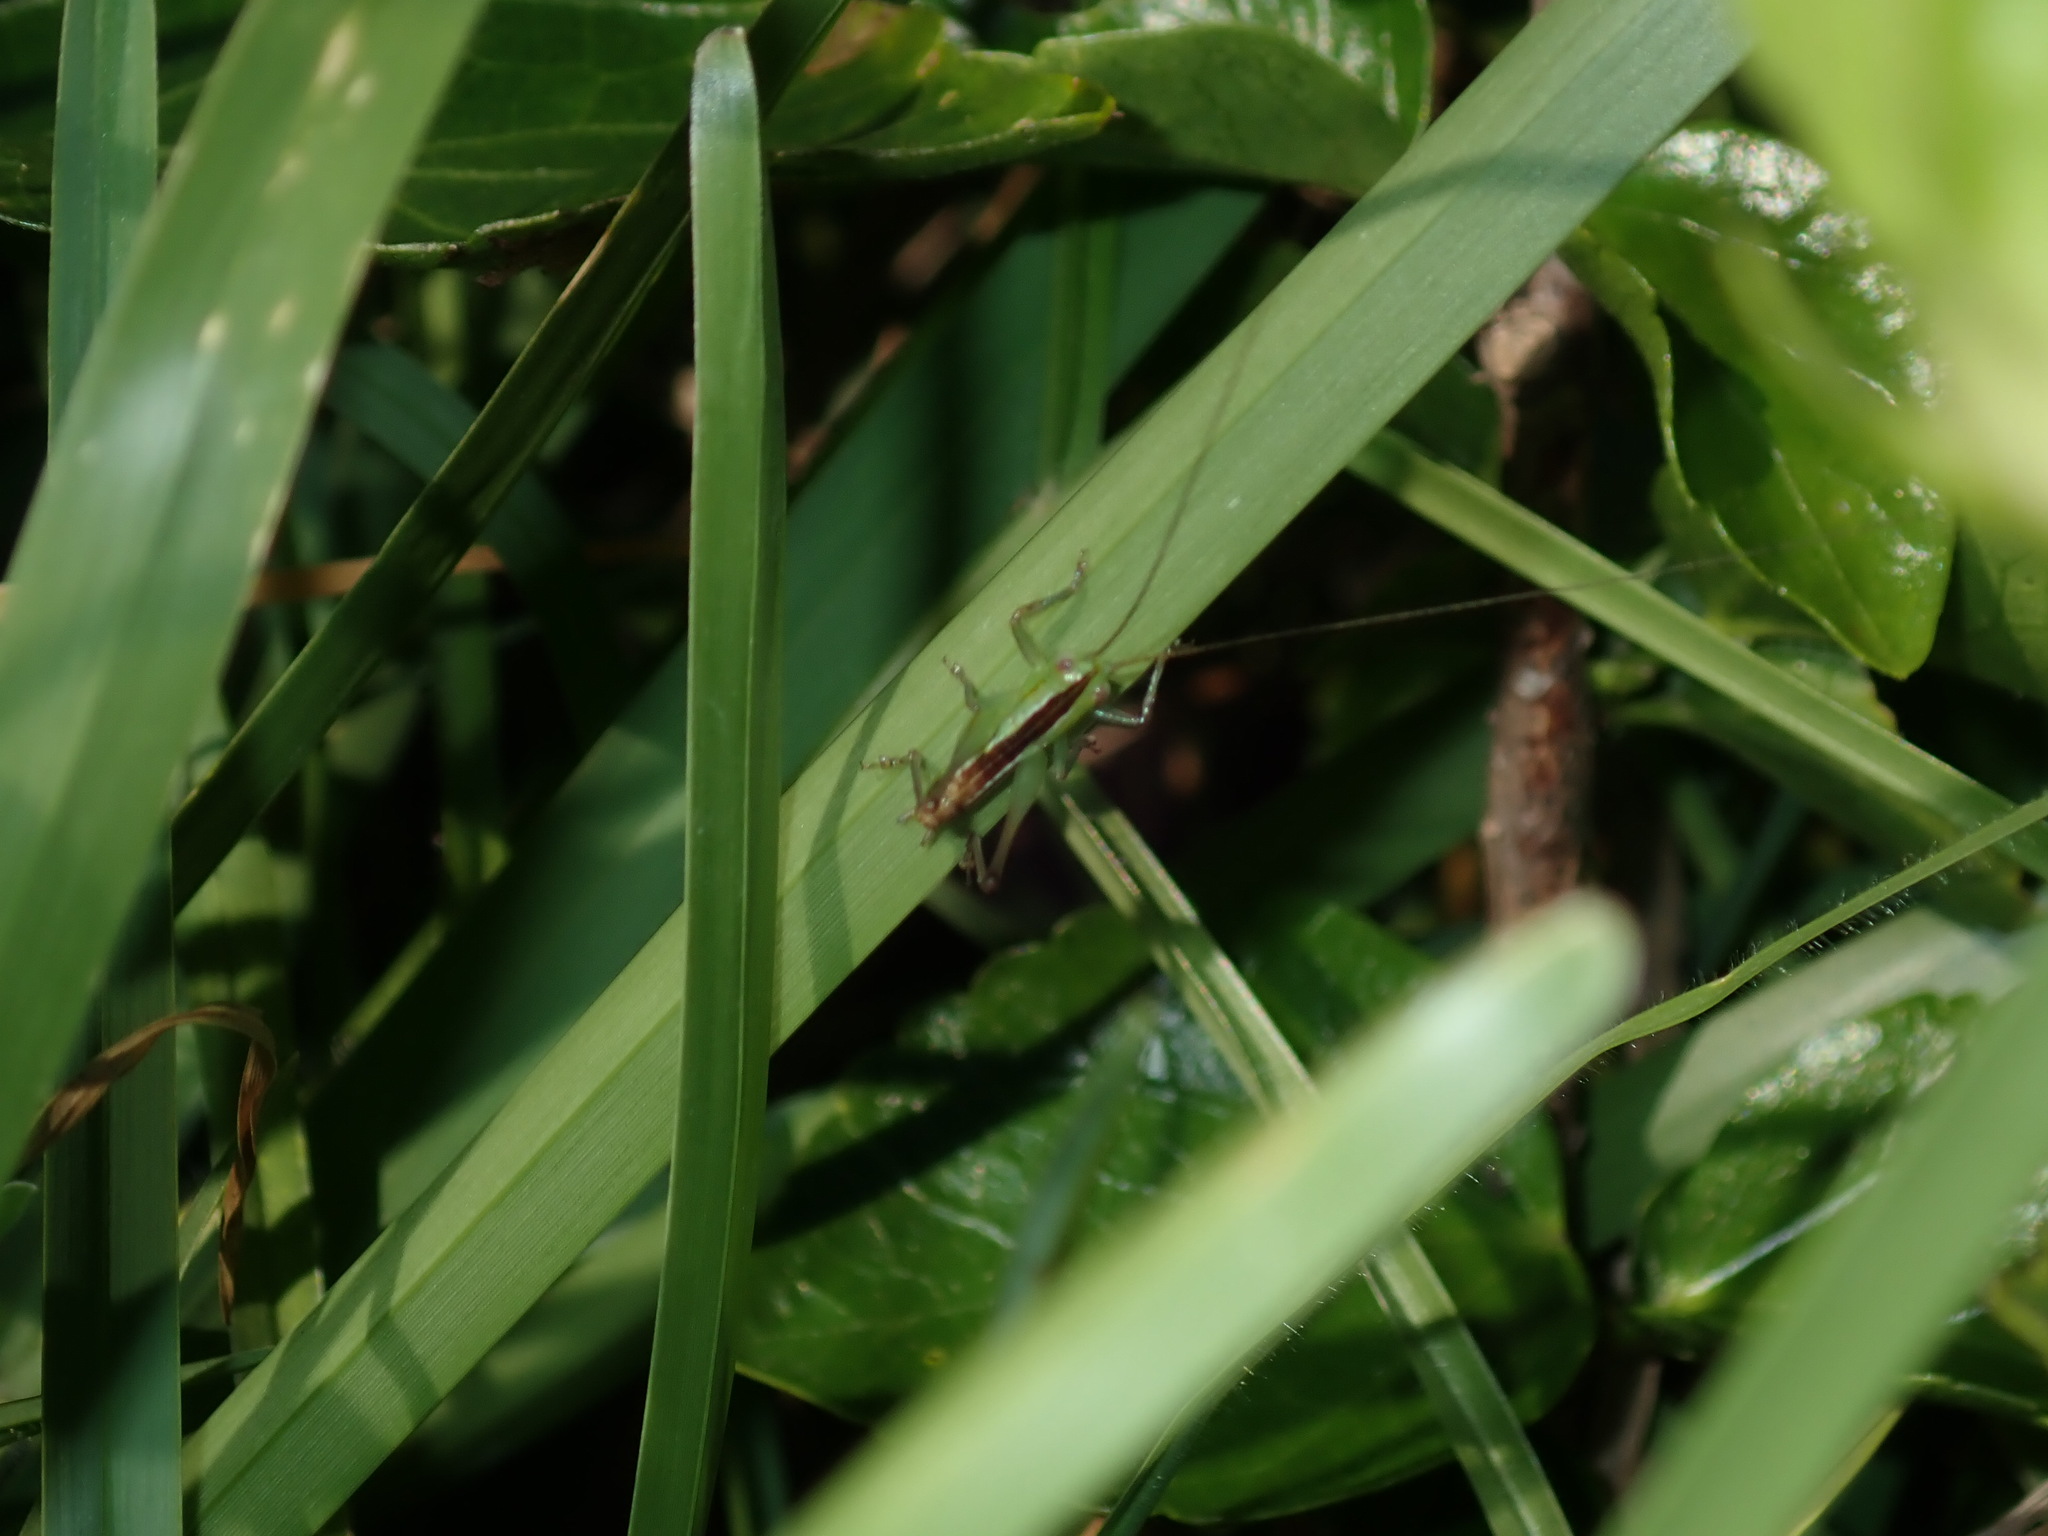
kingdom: Animalia
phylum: Arthropoda
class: Insecta
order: Orthoptera
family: Tettigoniidae
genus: Conocephalus
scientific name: Conocephalus semivittatus
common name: Blackish meadow katydid
